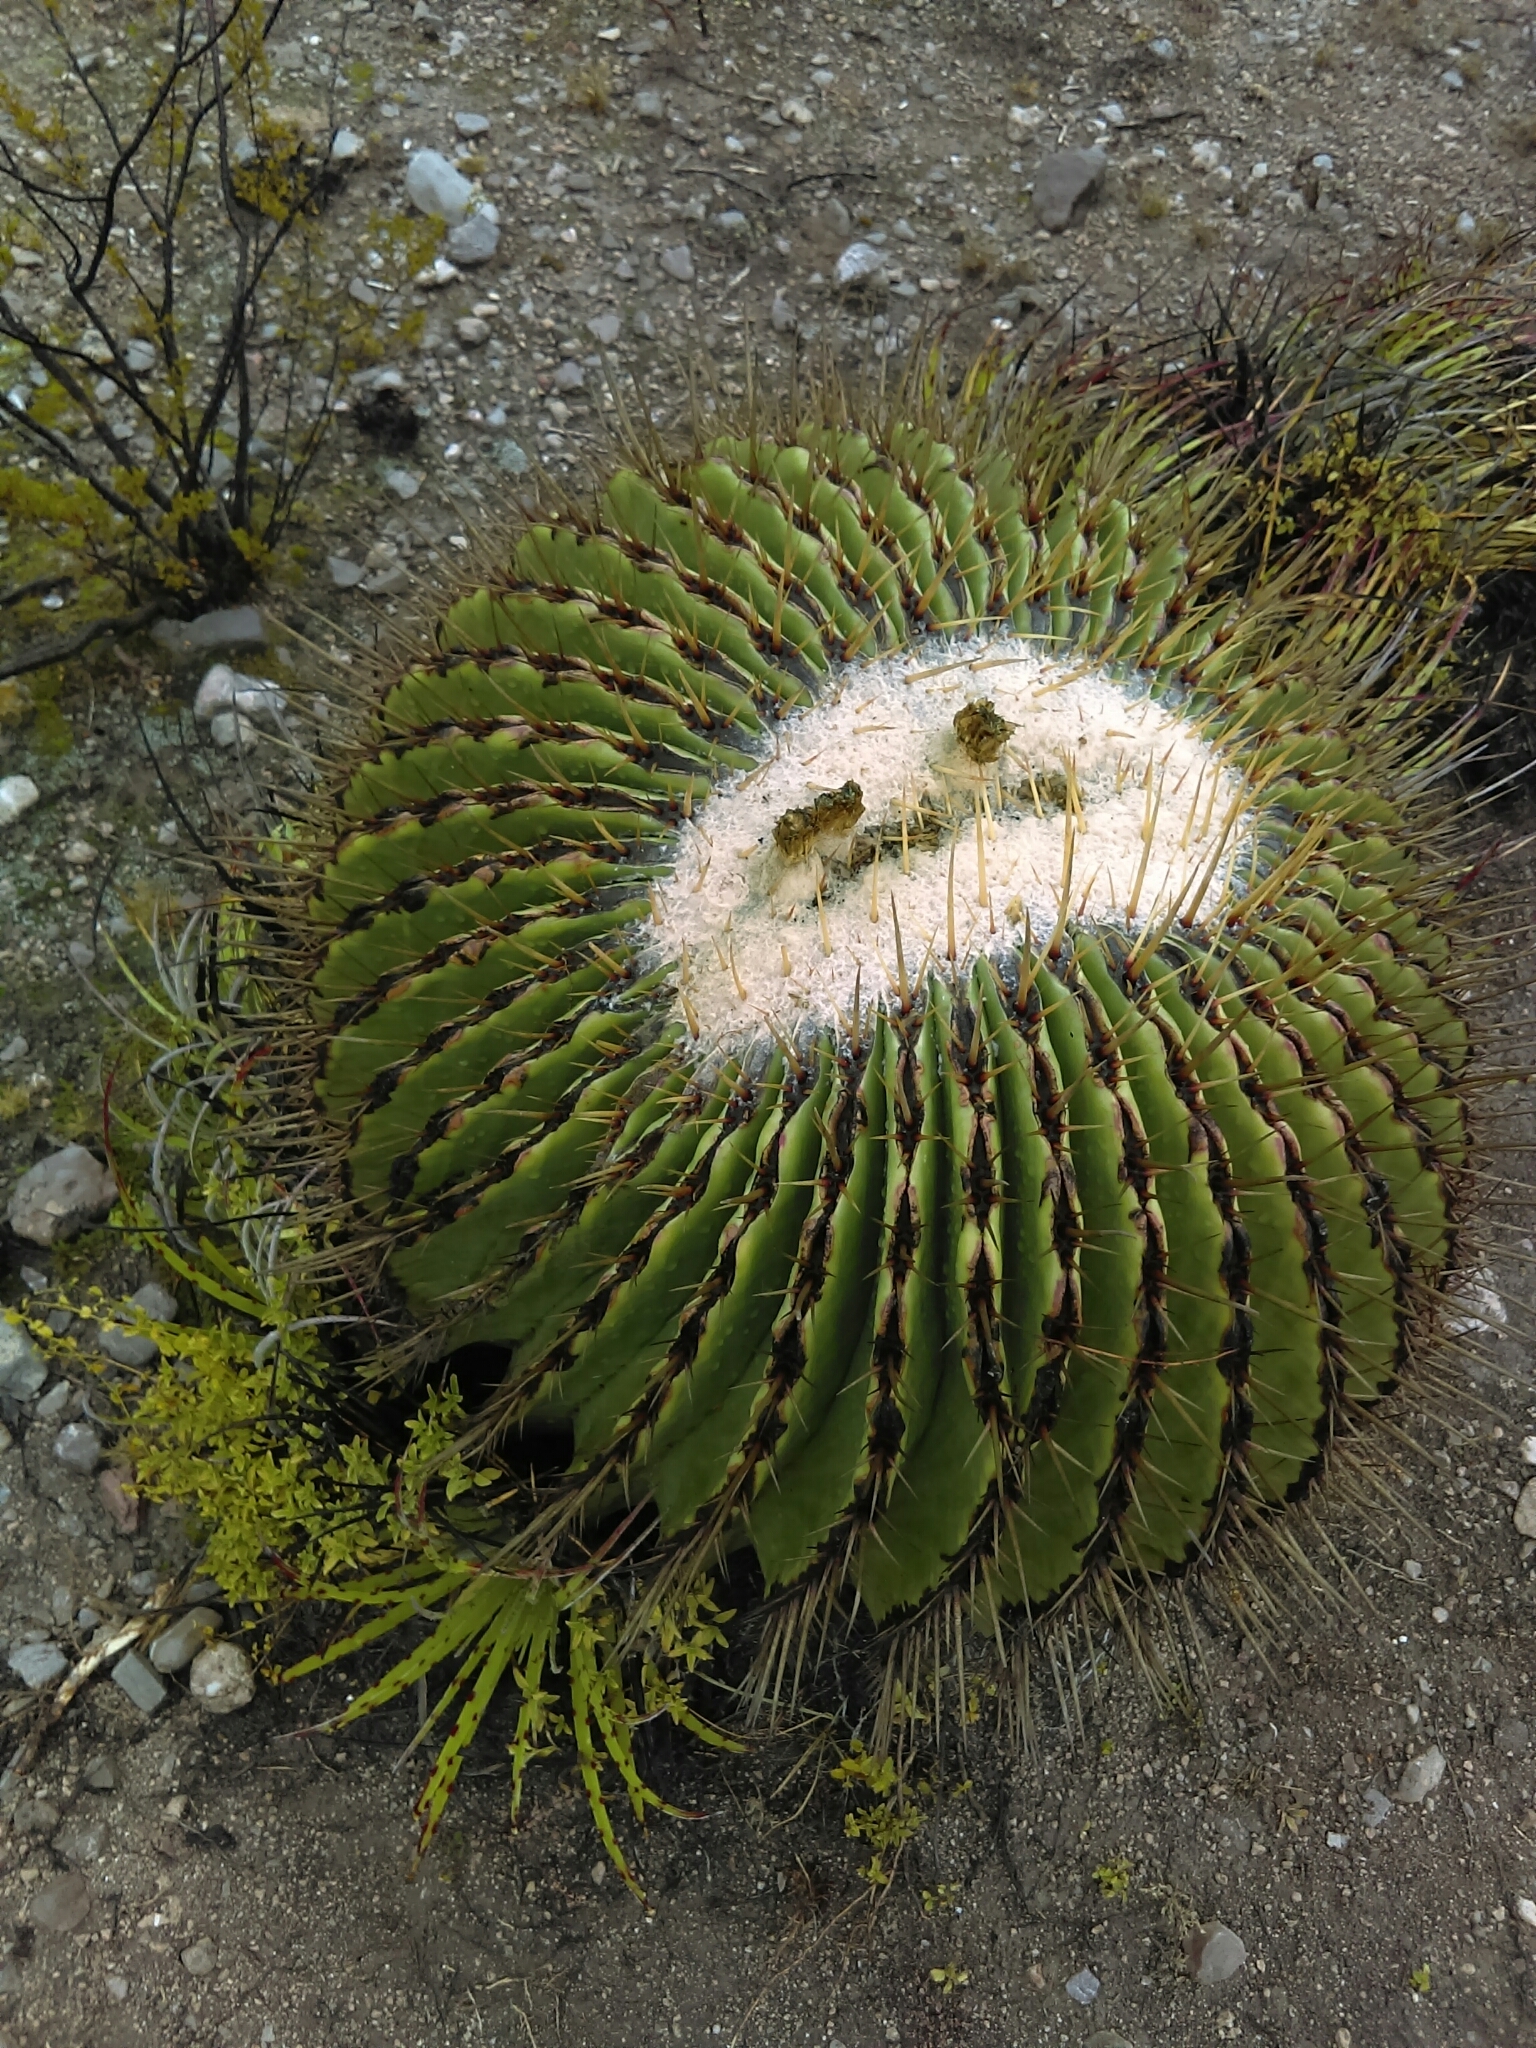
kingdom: Plantae
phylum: Tracheophyta
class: Magnoliopsida
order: Caryophyllales
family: Cactaceae
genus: Echinocactus
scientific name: Echinocactus platyacanthus
